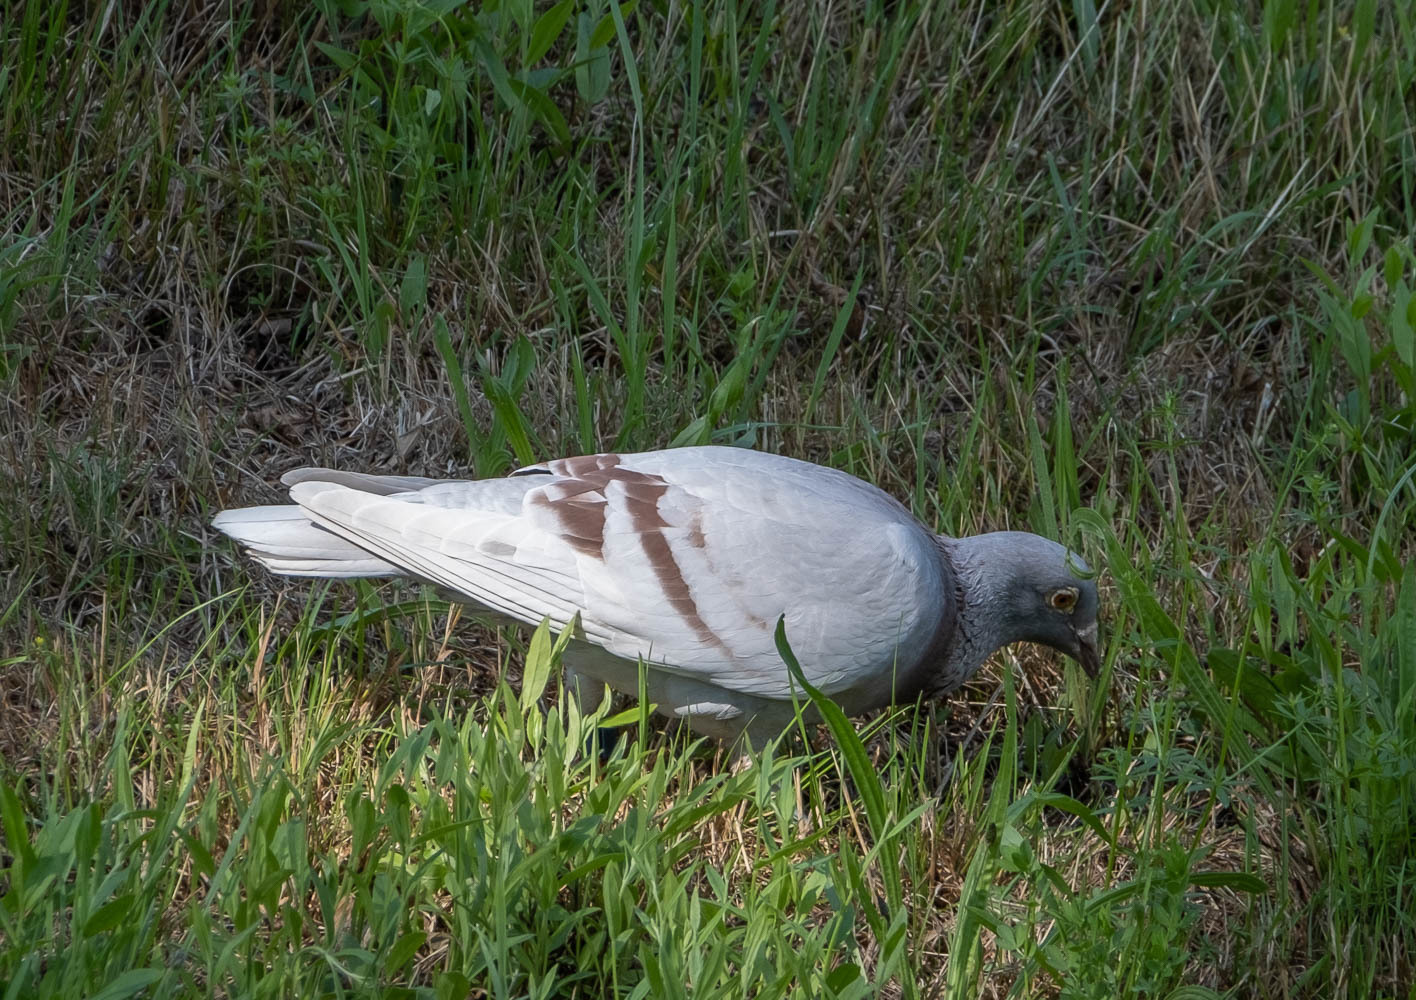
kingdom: Animalia
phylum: Chordata
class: Aves
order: Columbiformes
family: Columbidae
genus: Columba
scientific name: Columba livia
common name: Rock pigeon
